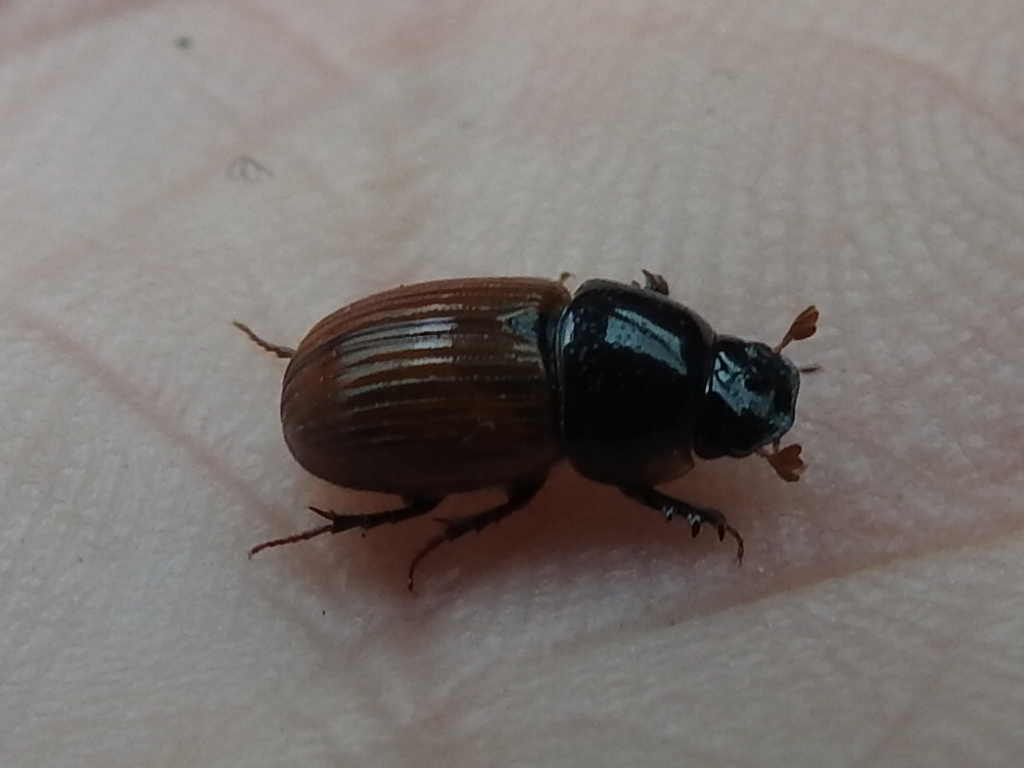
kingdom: Animalia
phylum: Arthropoda
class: Insecta
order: Coleoptera
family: Scarabaeidae
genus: Aphodius
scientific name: Aphodius pedellus
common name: Common dung beetle
